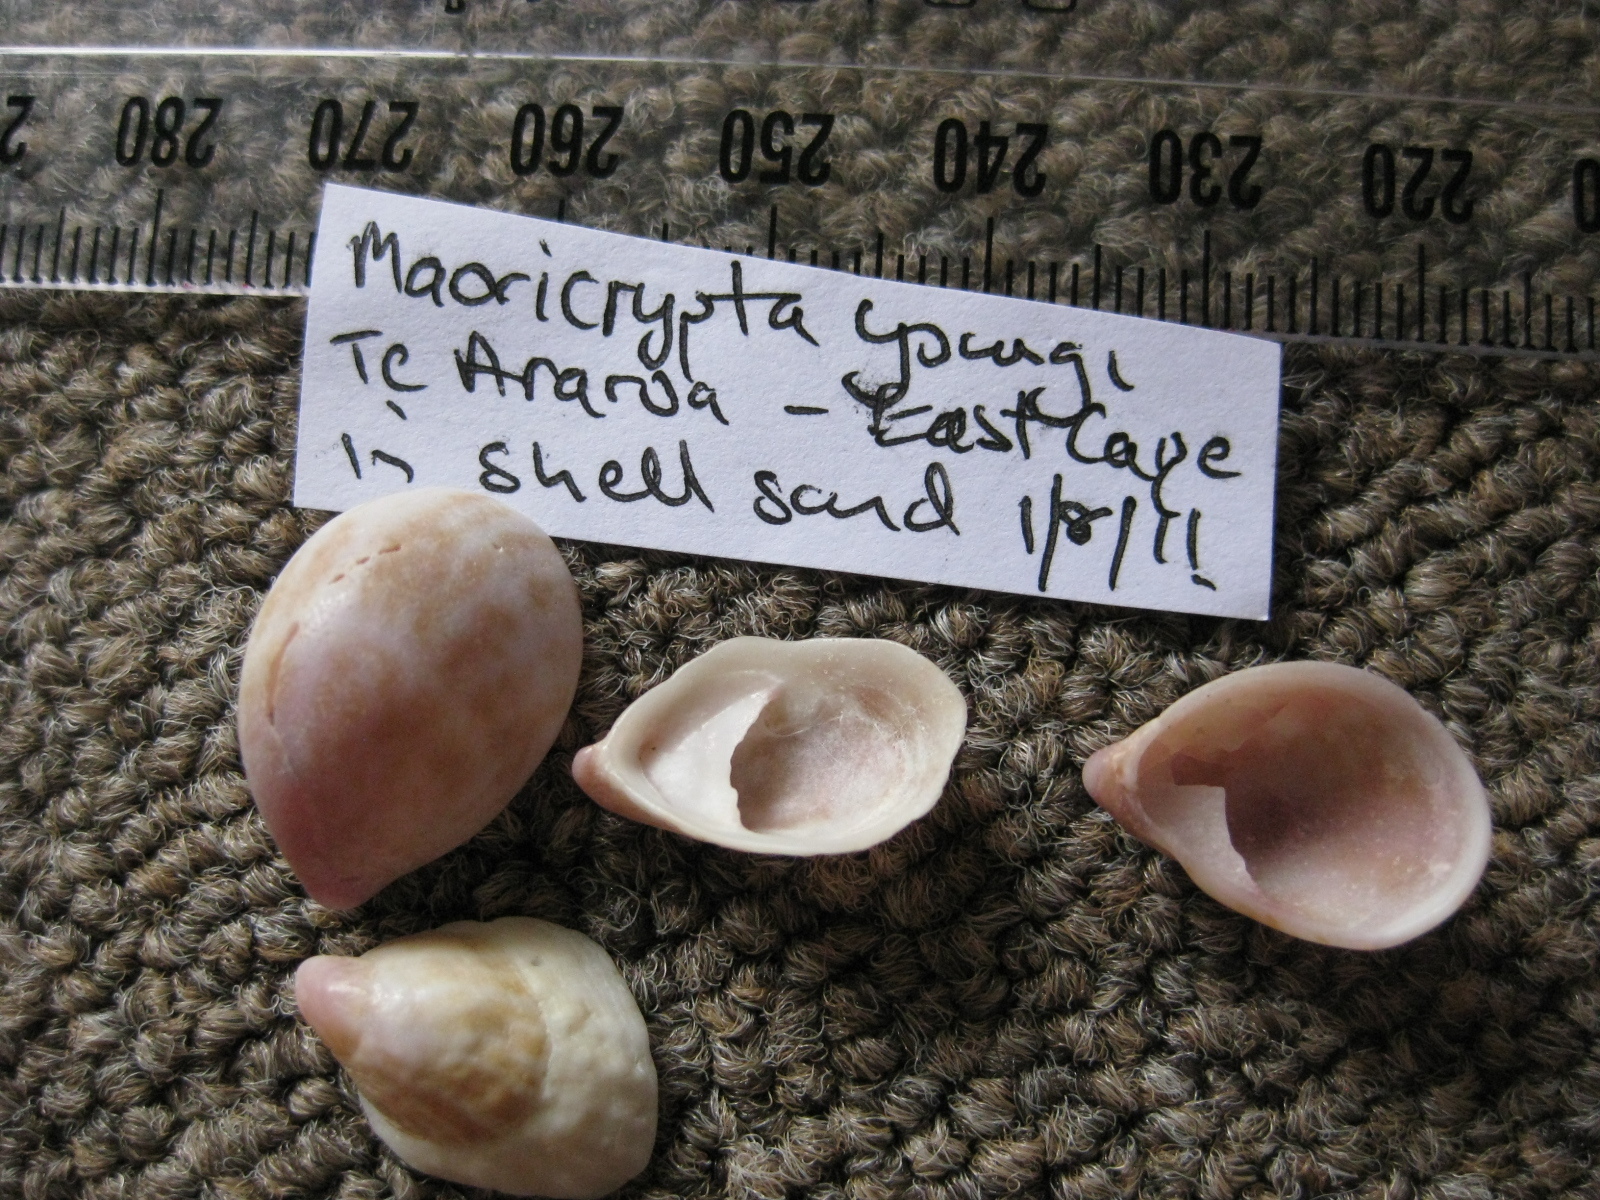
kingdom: Animalia
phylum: Mollusca
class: Gastropoda
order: Littorinimorpha
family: Calyptraeidae
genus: Maoricrypta
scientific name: Maoricrypta youngi
